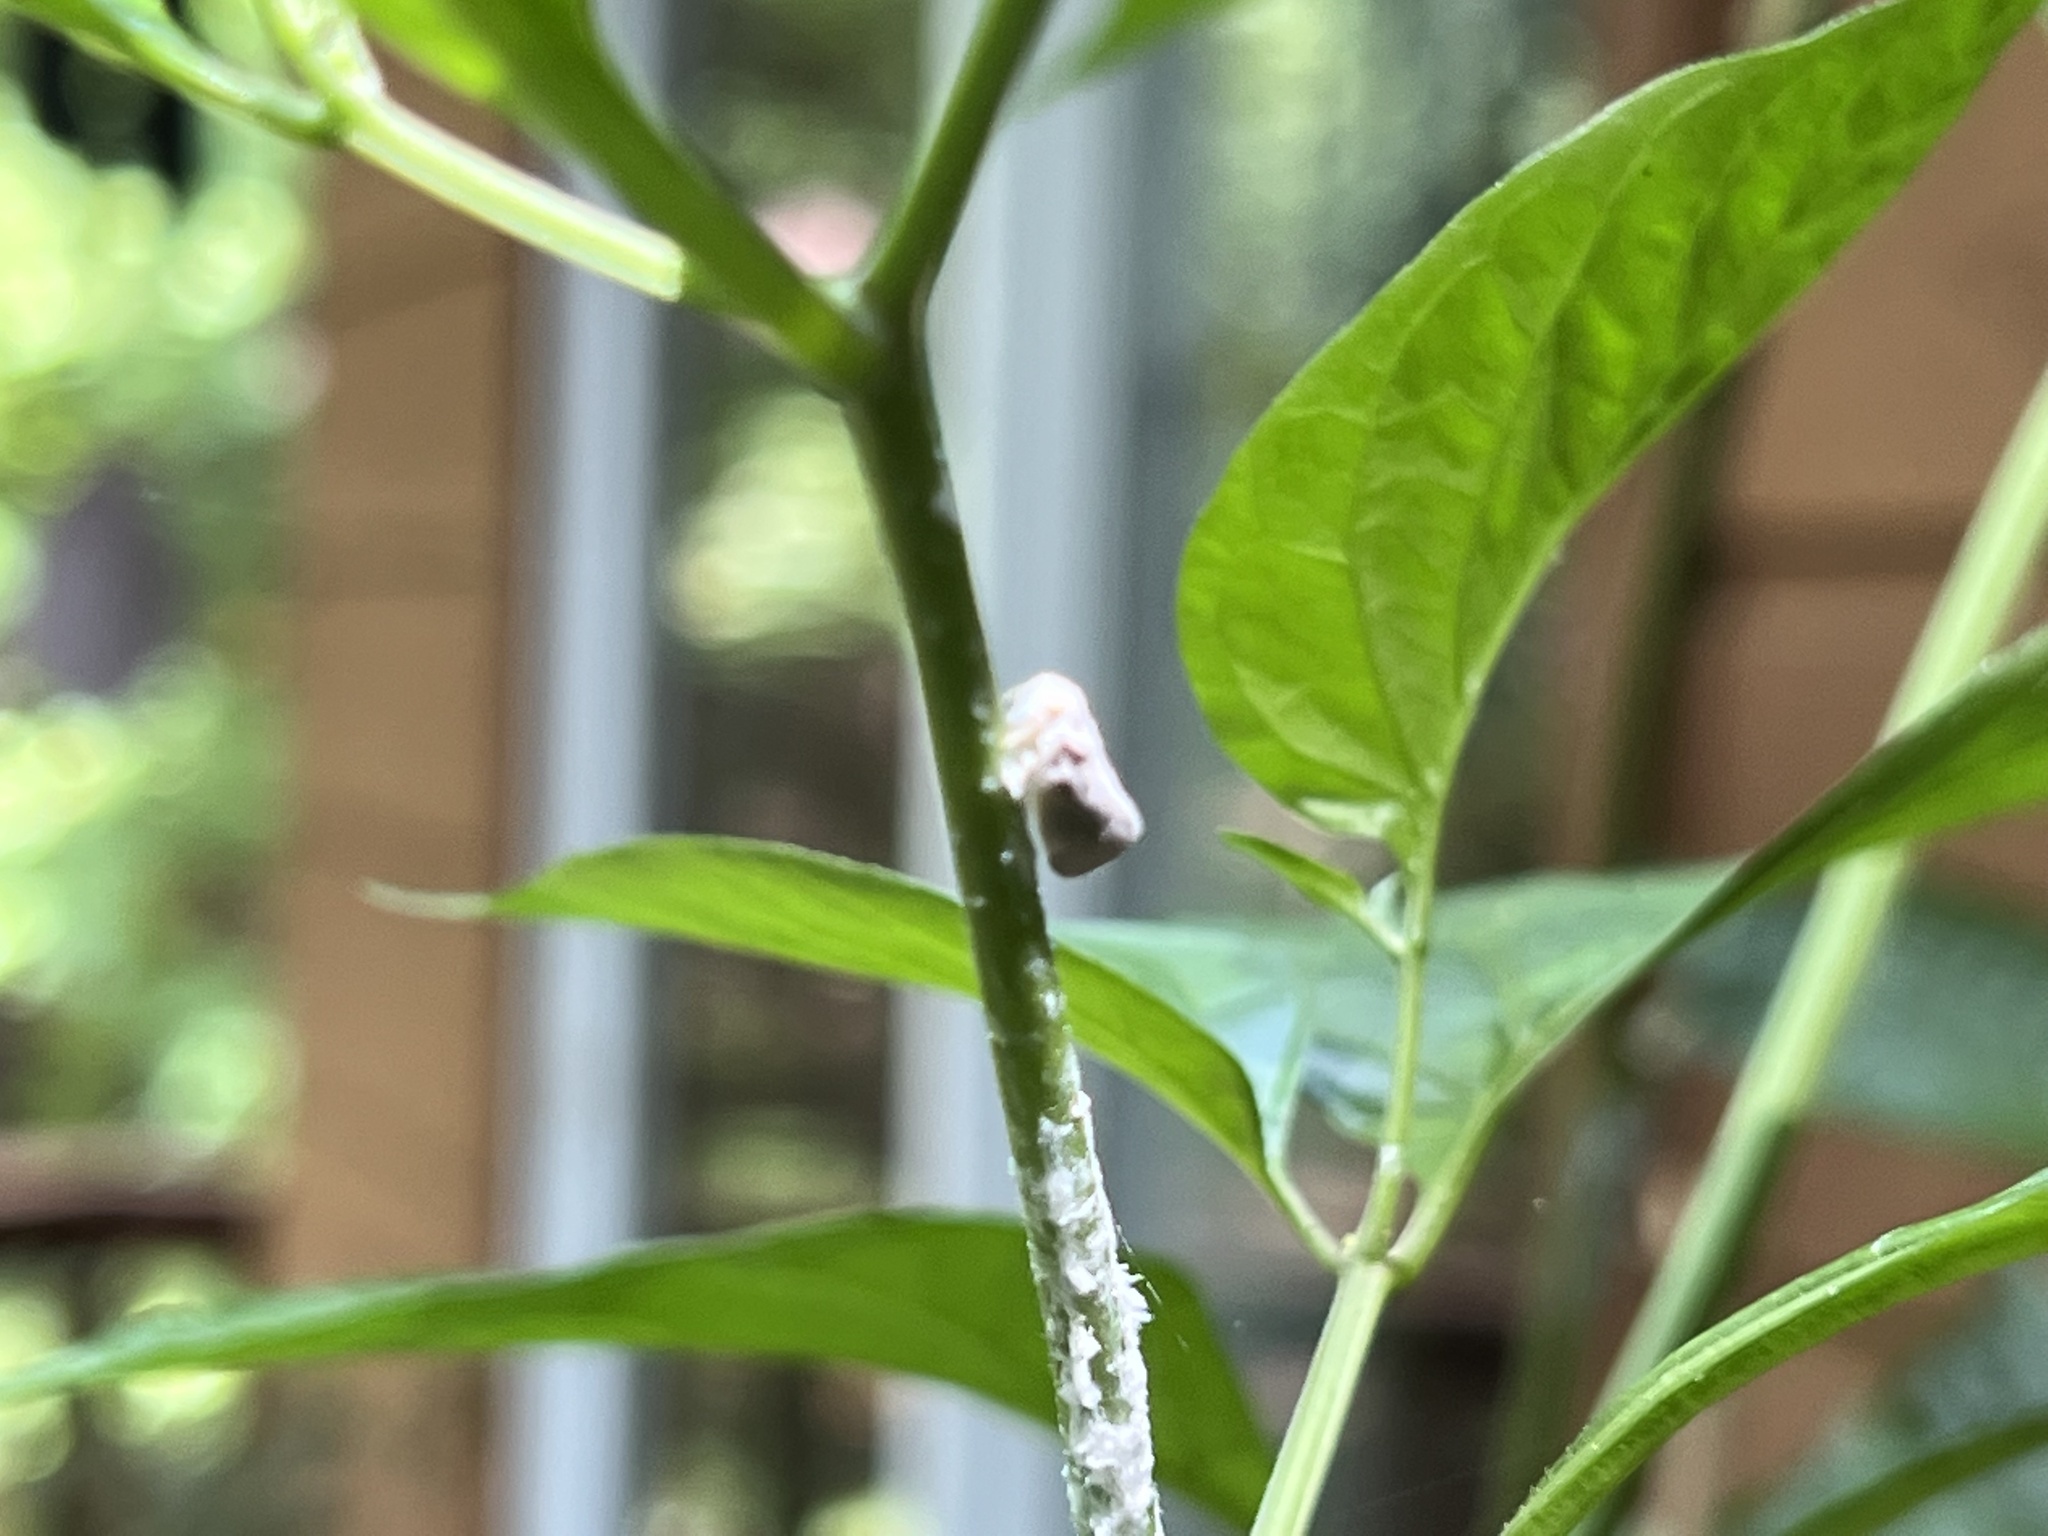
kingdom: Animalia
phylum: Arthropoda
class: Insecta
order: Hemiptera
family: Flatidae
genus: Metcalfa
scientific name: Metcalfa pruinosa
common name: Citrus flatid planthopper
